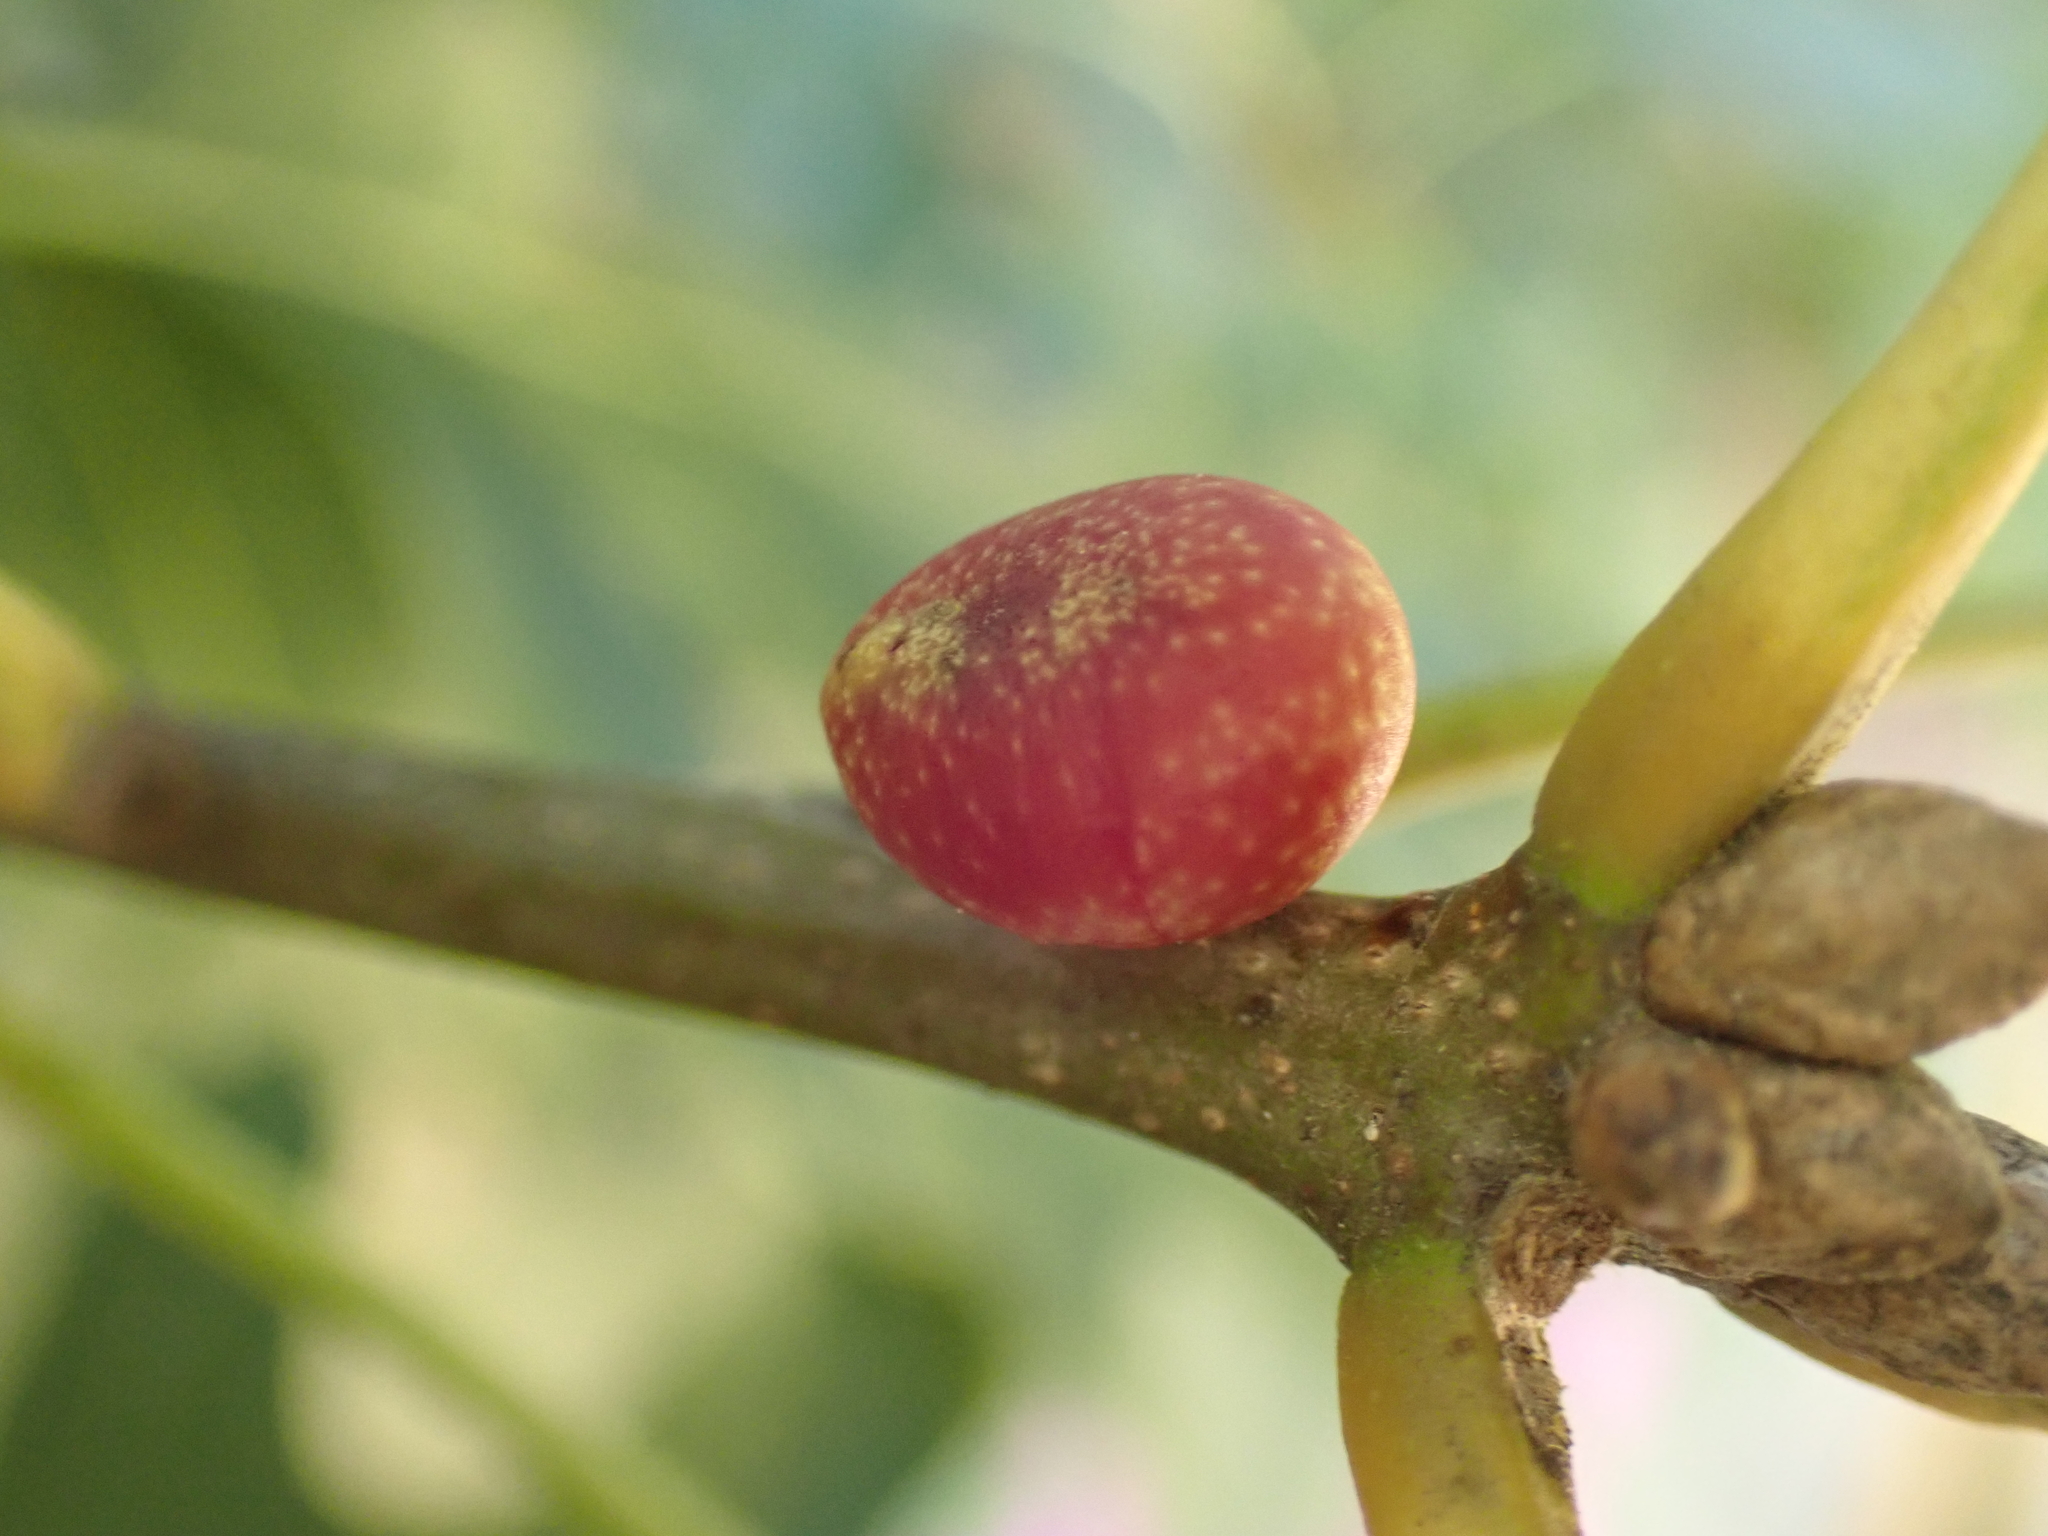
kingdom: Animalia
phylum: Arthropoda
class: Insecta
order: Hymenoptera
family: Cynipidae
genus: Kokkocynips
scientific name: Kokkocynips imbricariae
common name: Banded bullet gall wasp
